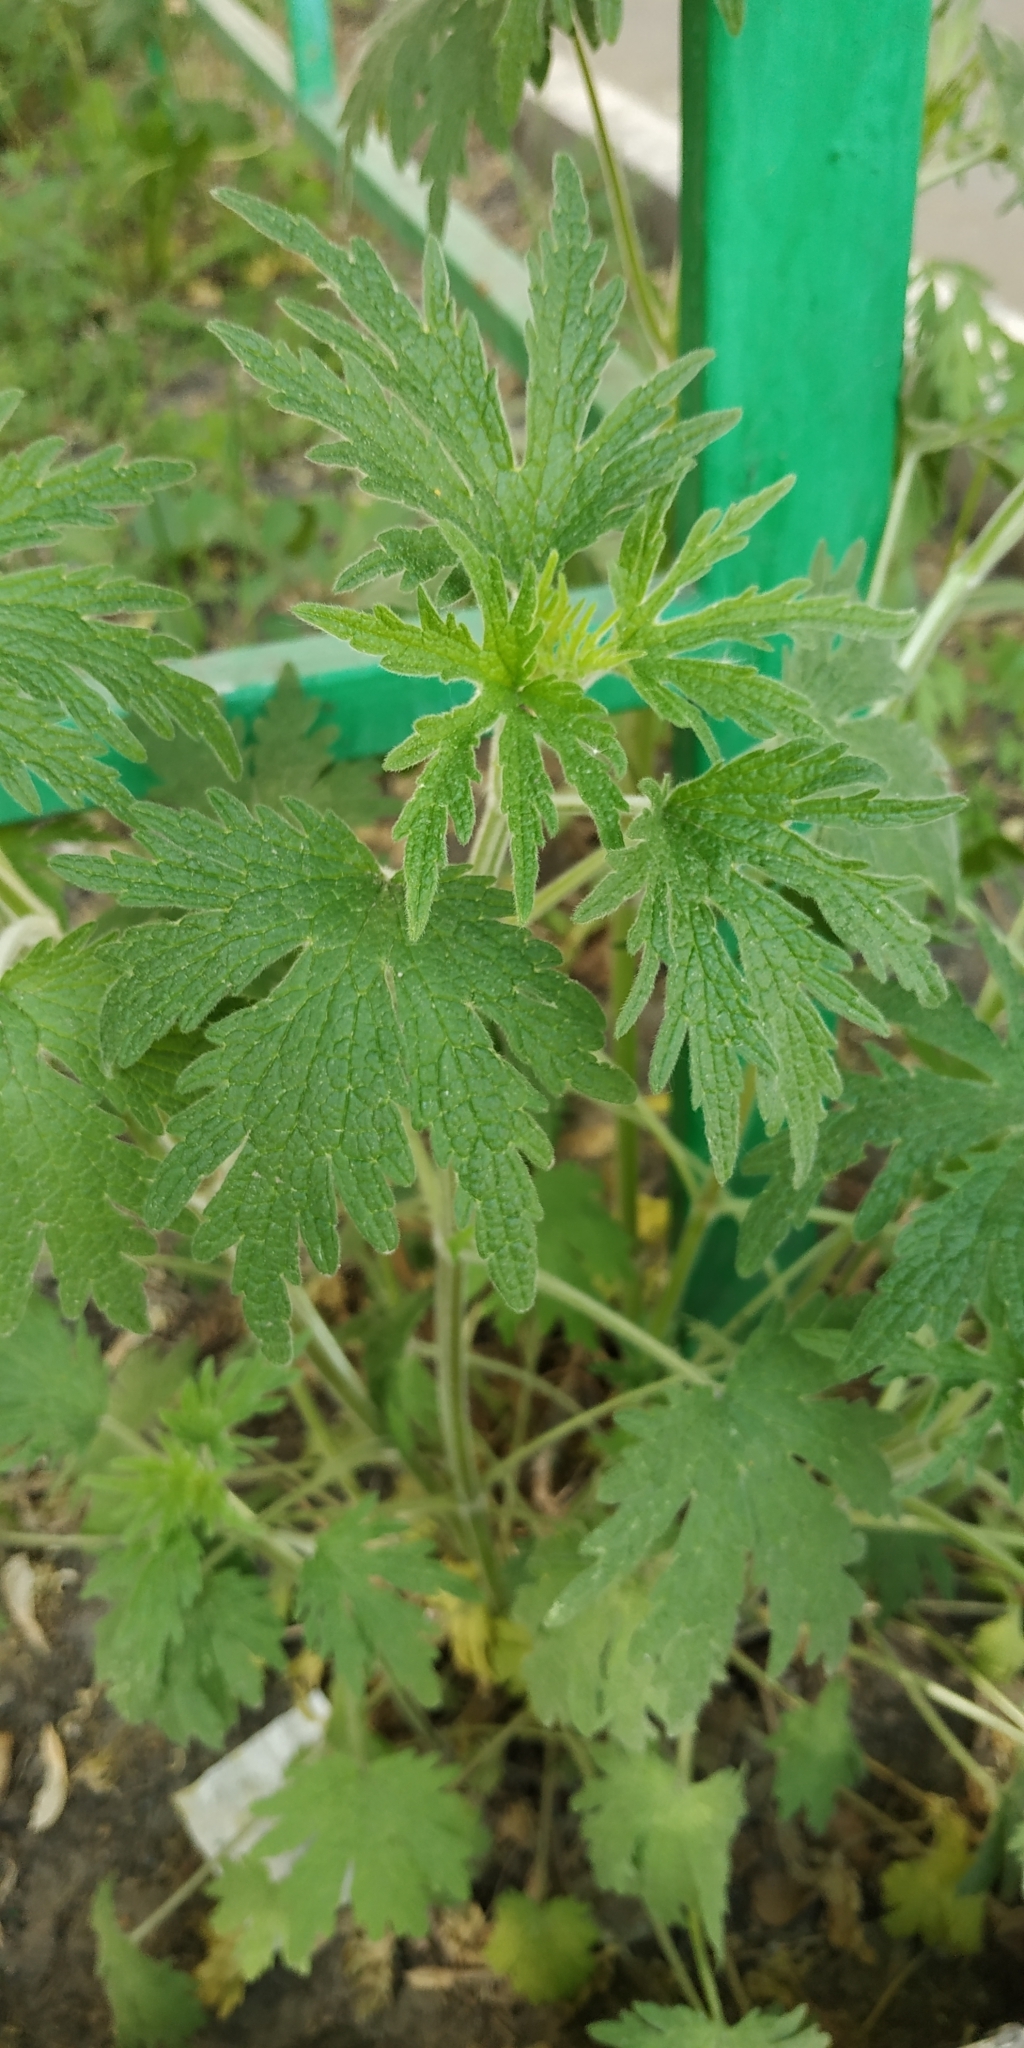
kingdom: Plantae
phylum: Tracheophyta
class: Magnoliopsida
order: Lamiales
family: Lamiaceae
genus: Leonurus
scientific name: Leonurus quinquelobatus
